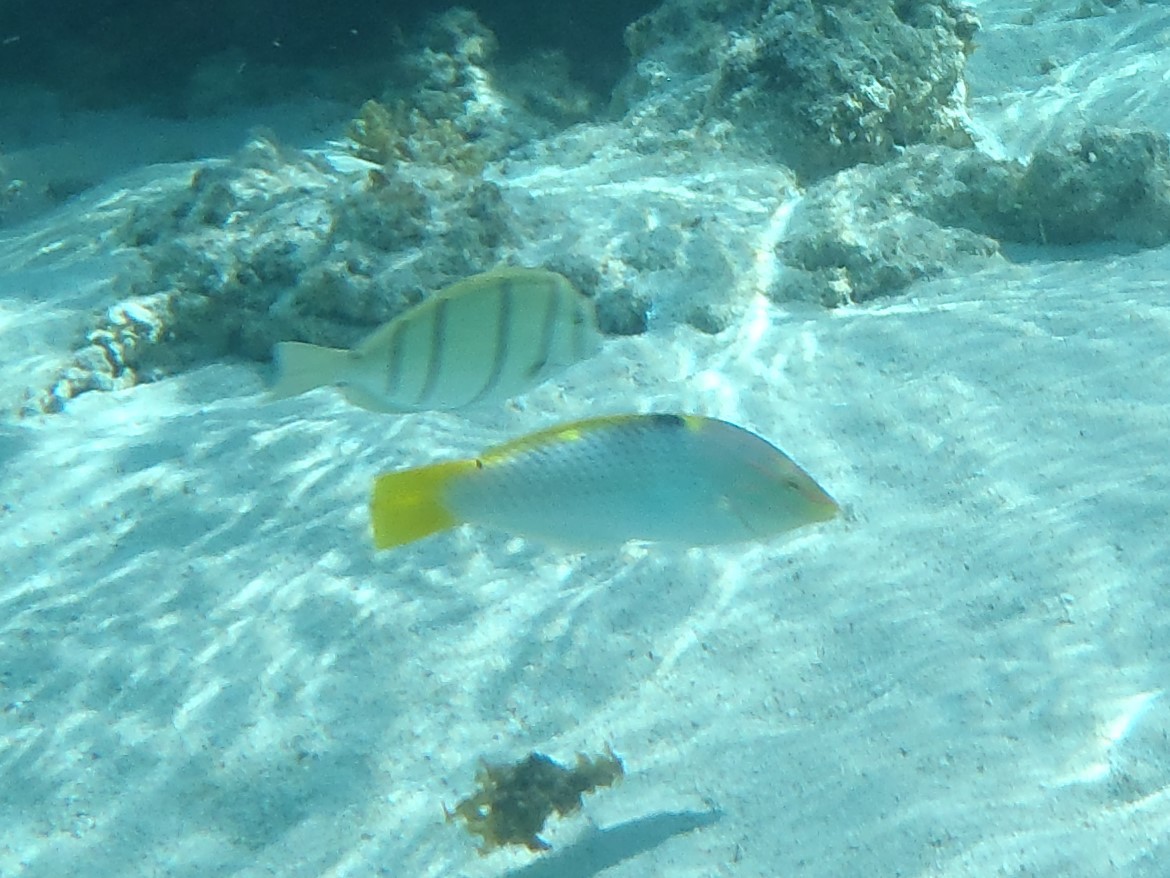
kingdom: Animalia
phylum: Chordata
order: Perciformes
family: Labridae
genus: Halichoeres
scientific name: Halichoeres hortulanus
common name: Checkerboard wrasse
